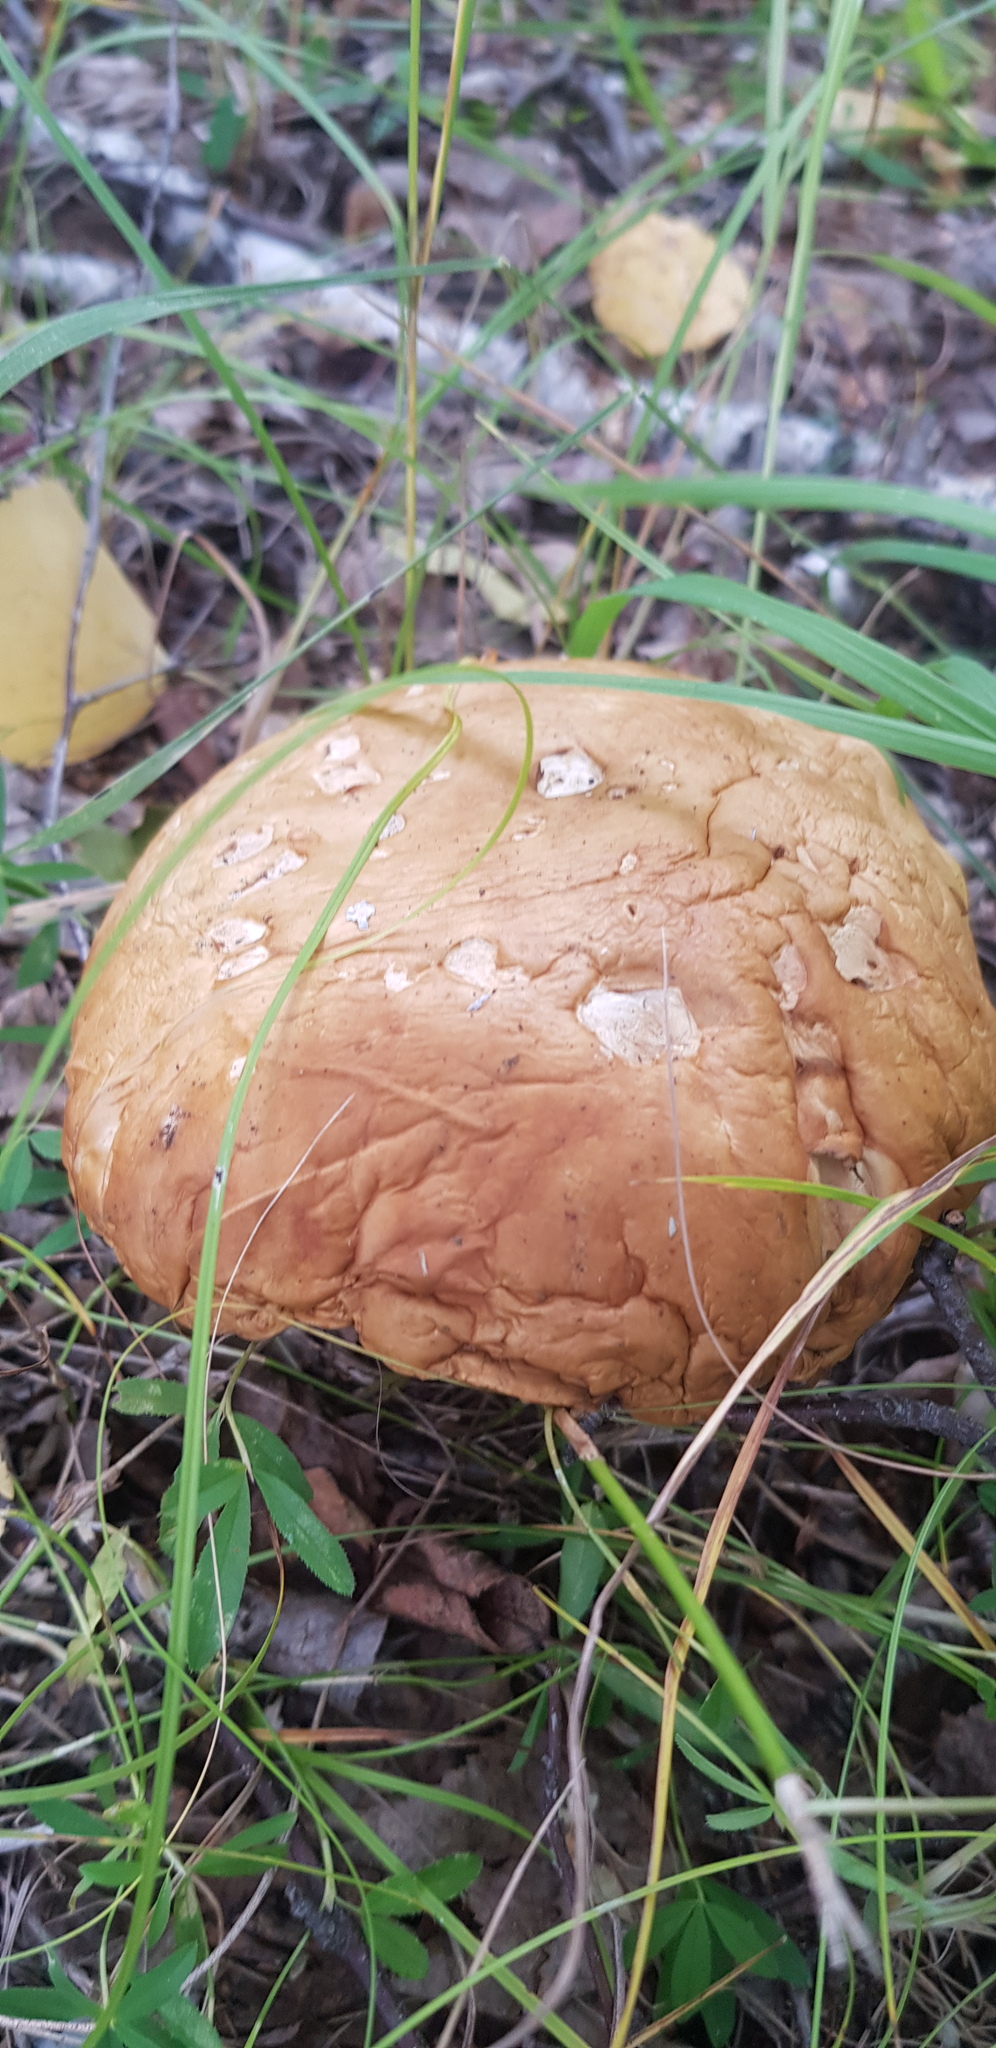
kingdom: Fungi
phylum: Basidiomycota
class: Agaricomycetes
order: Boletales
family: Boletaceae
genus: Leccinum
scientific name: Leccinum scabrum
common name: Blushing bolete
